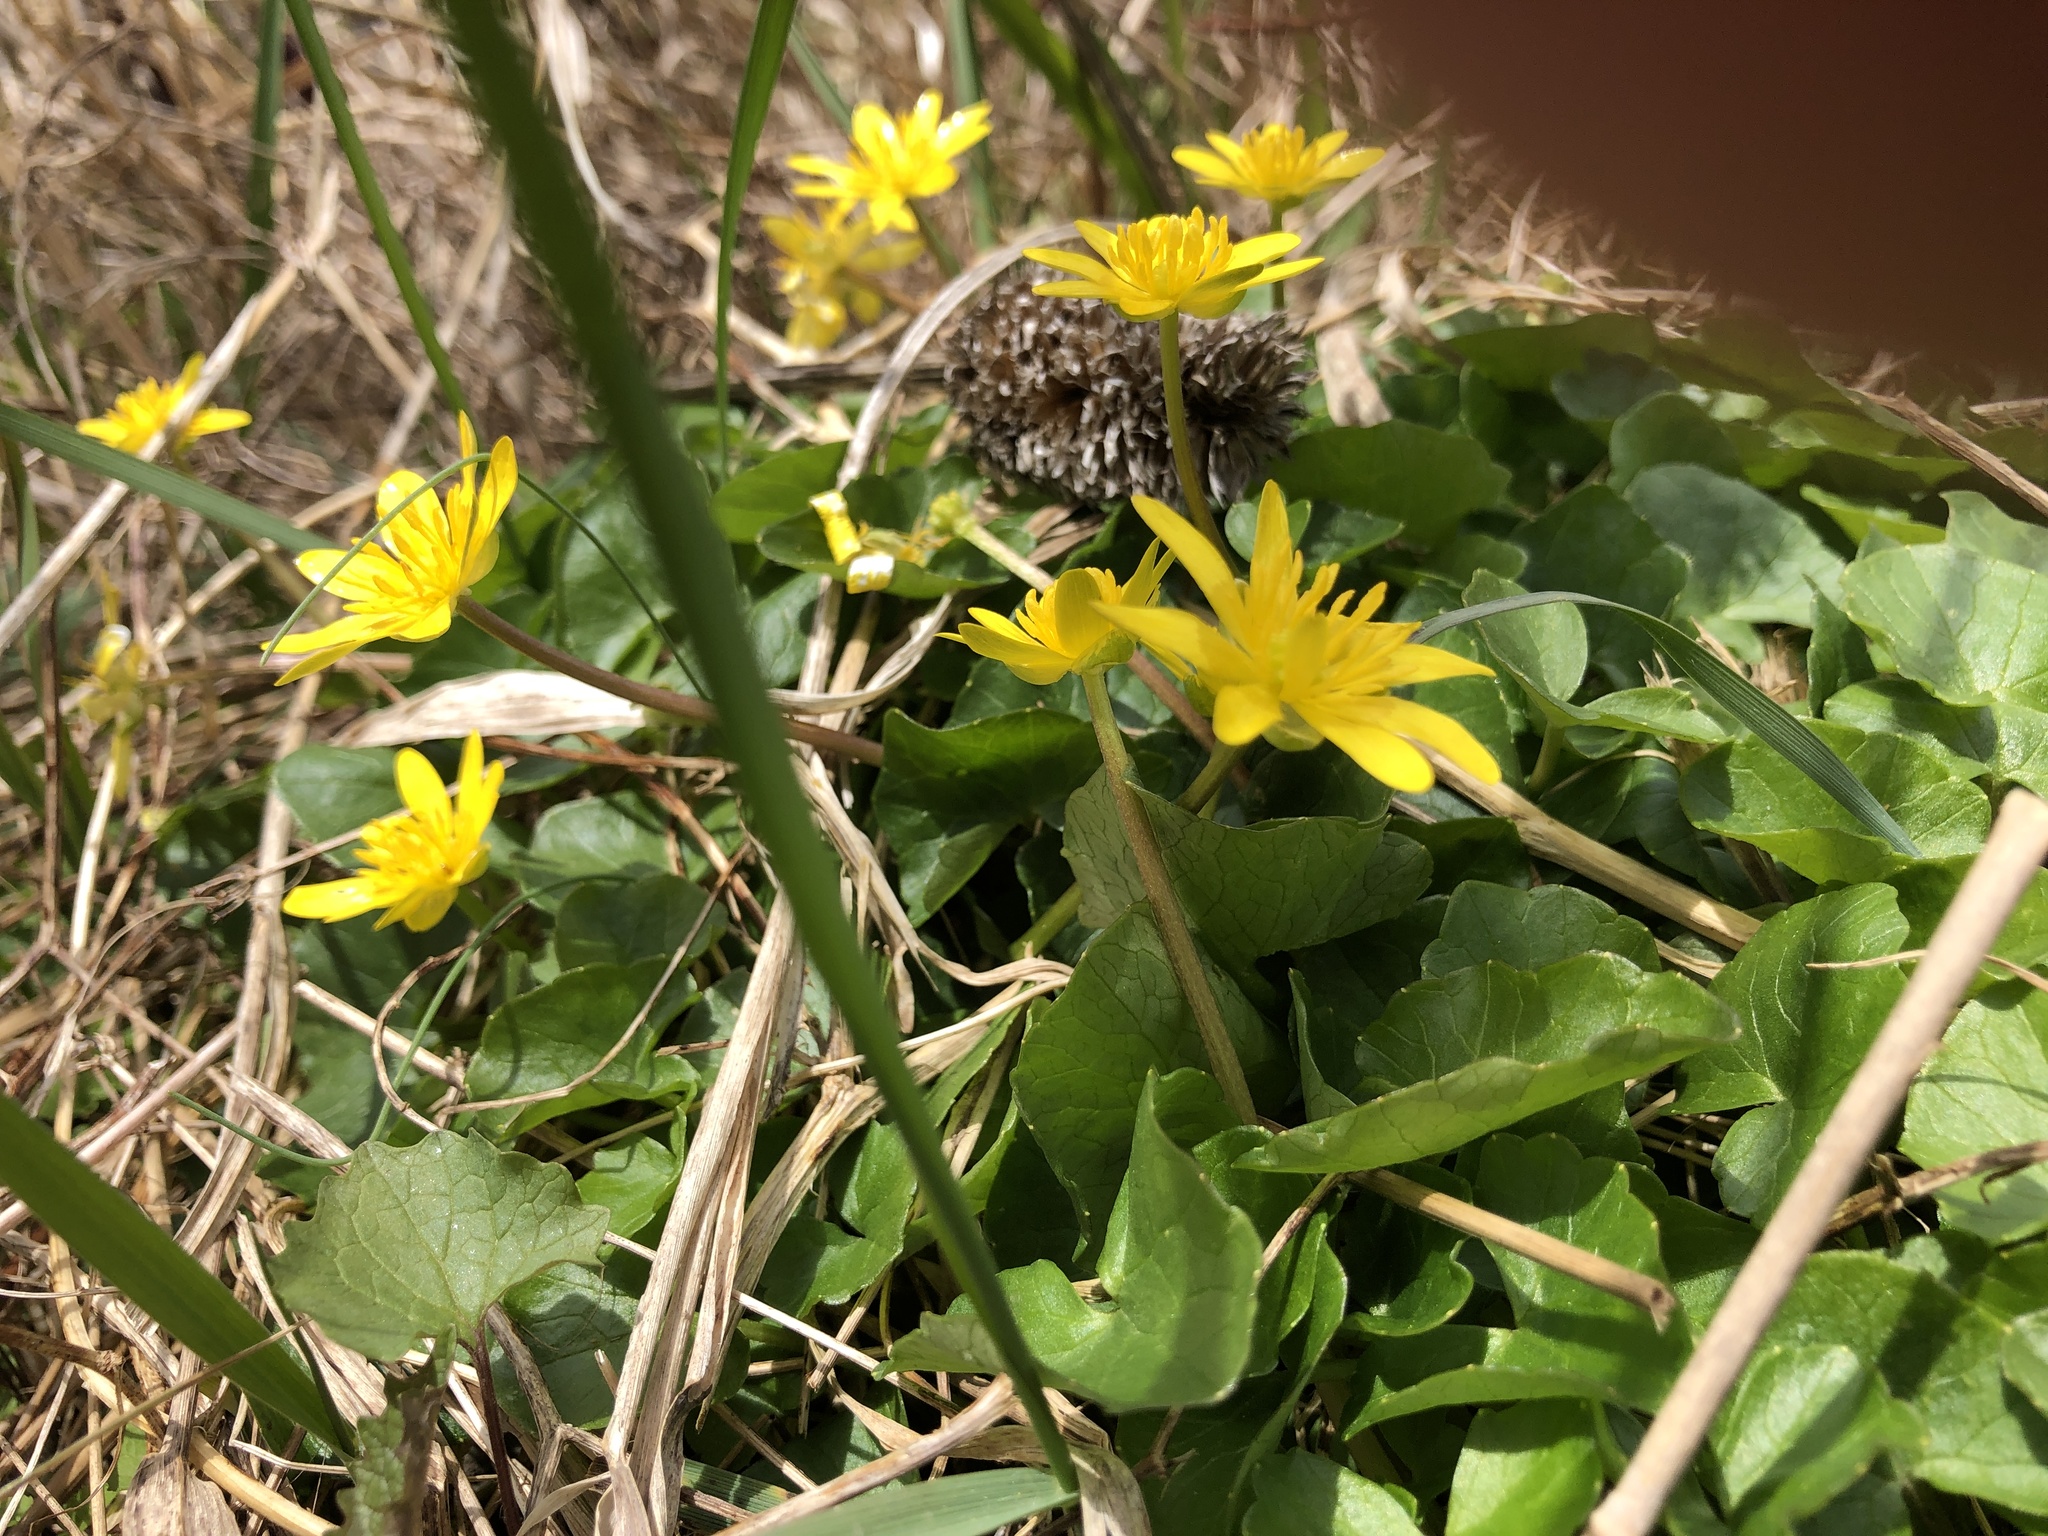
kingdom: Plantae
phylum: Tracheophyta
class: Magnoliopsida
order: Ranunculales
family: Ranunculaceae
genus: Ficaria
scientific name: Ficaria verna
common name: Lesser celandine
